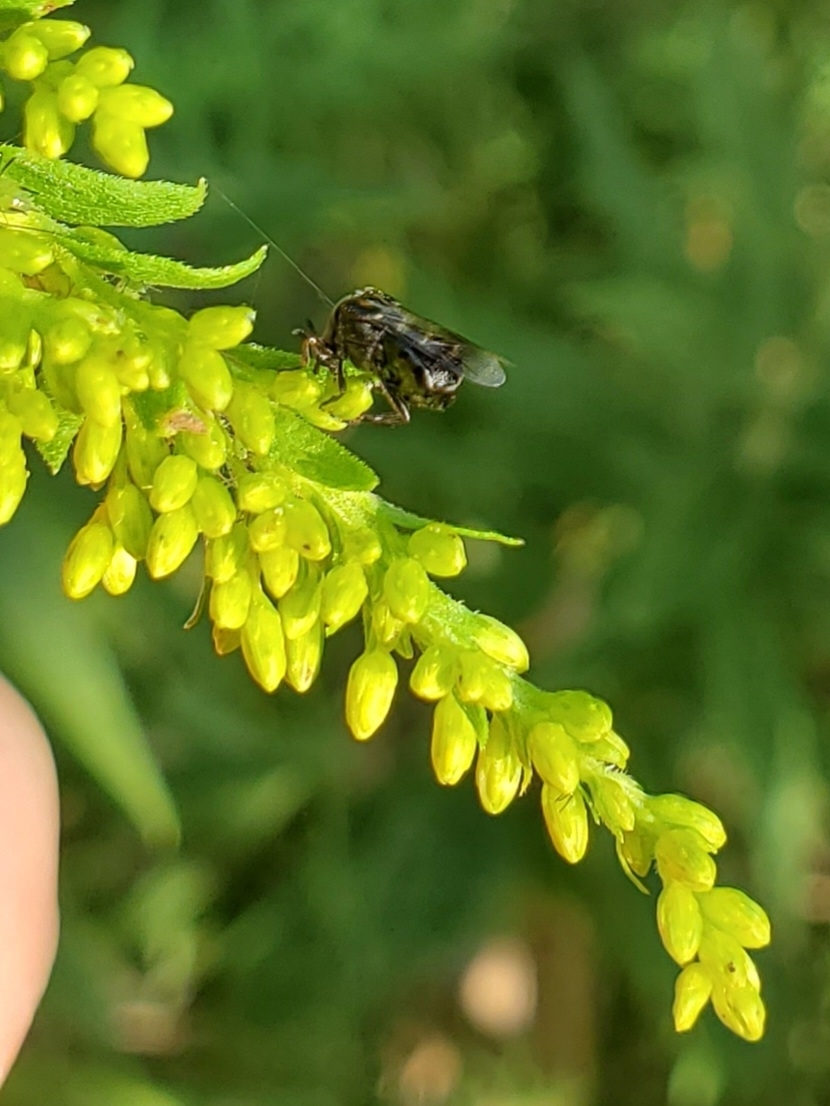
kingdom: Animalia
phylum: Arthropoda
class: Insecta
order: Coleoptera
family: Ripiphoridae
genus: Ripiphorus
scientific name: Ripiphorus
